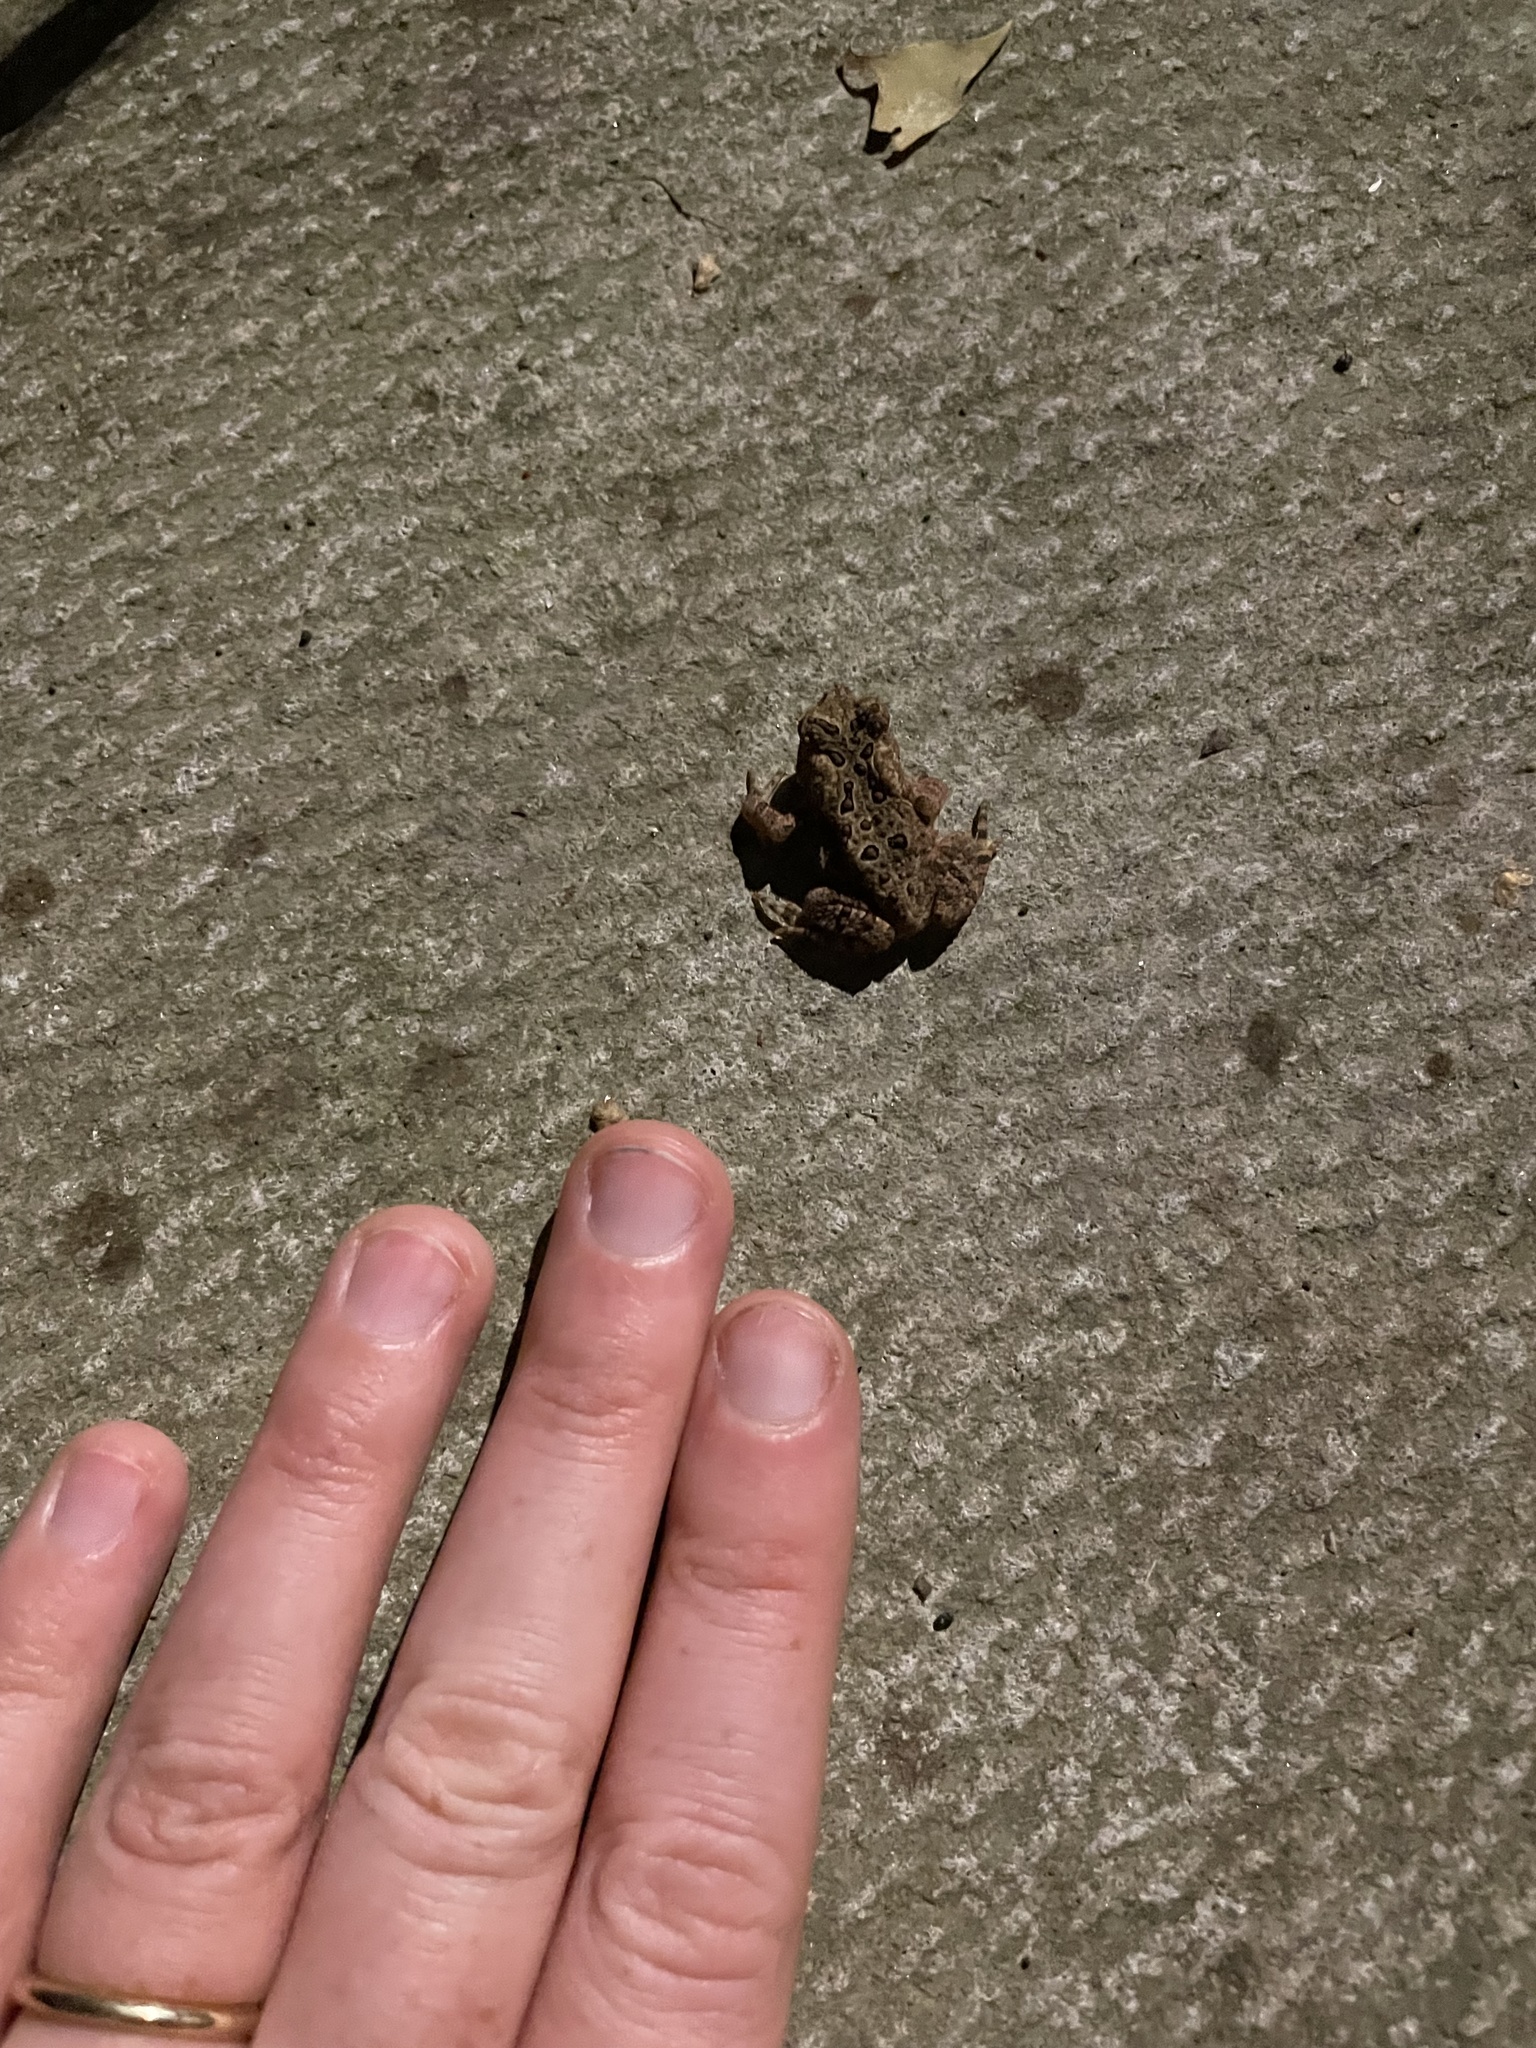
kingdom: Animalia
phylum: Chordata
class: Amphibia
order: Anura
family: Bufonidae
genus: Anaxyrus
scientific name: Anaxyrus americanus
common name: American toad
